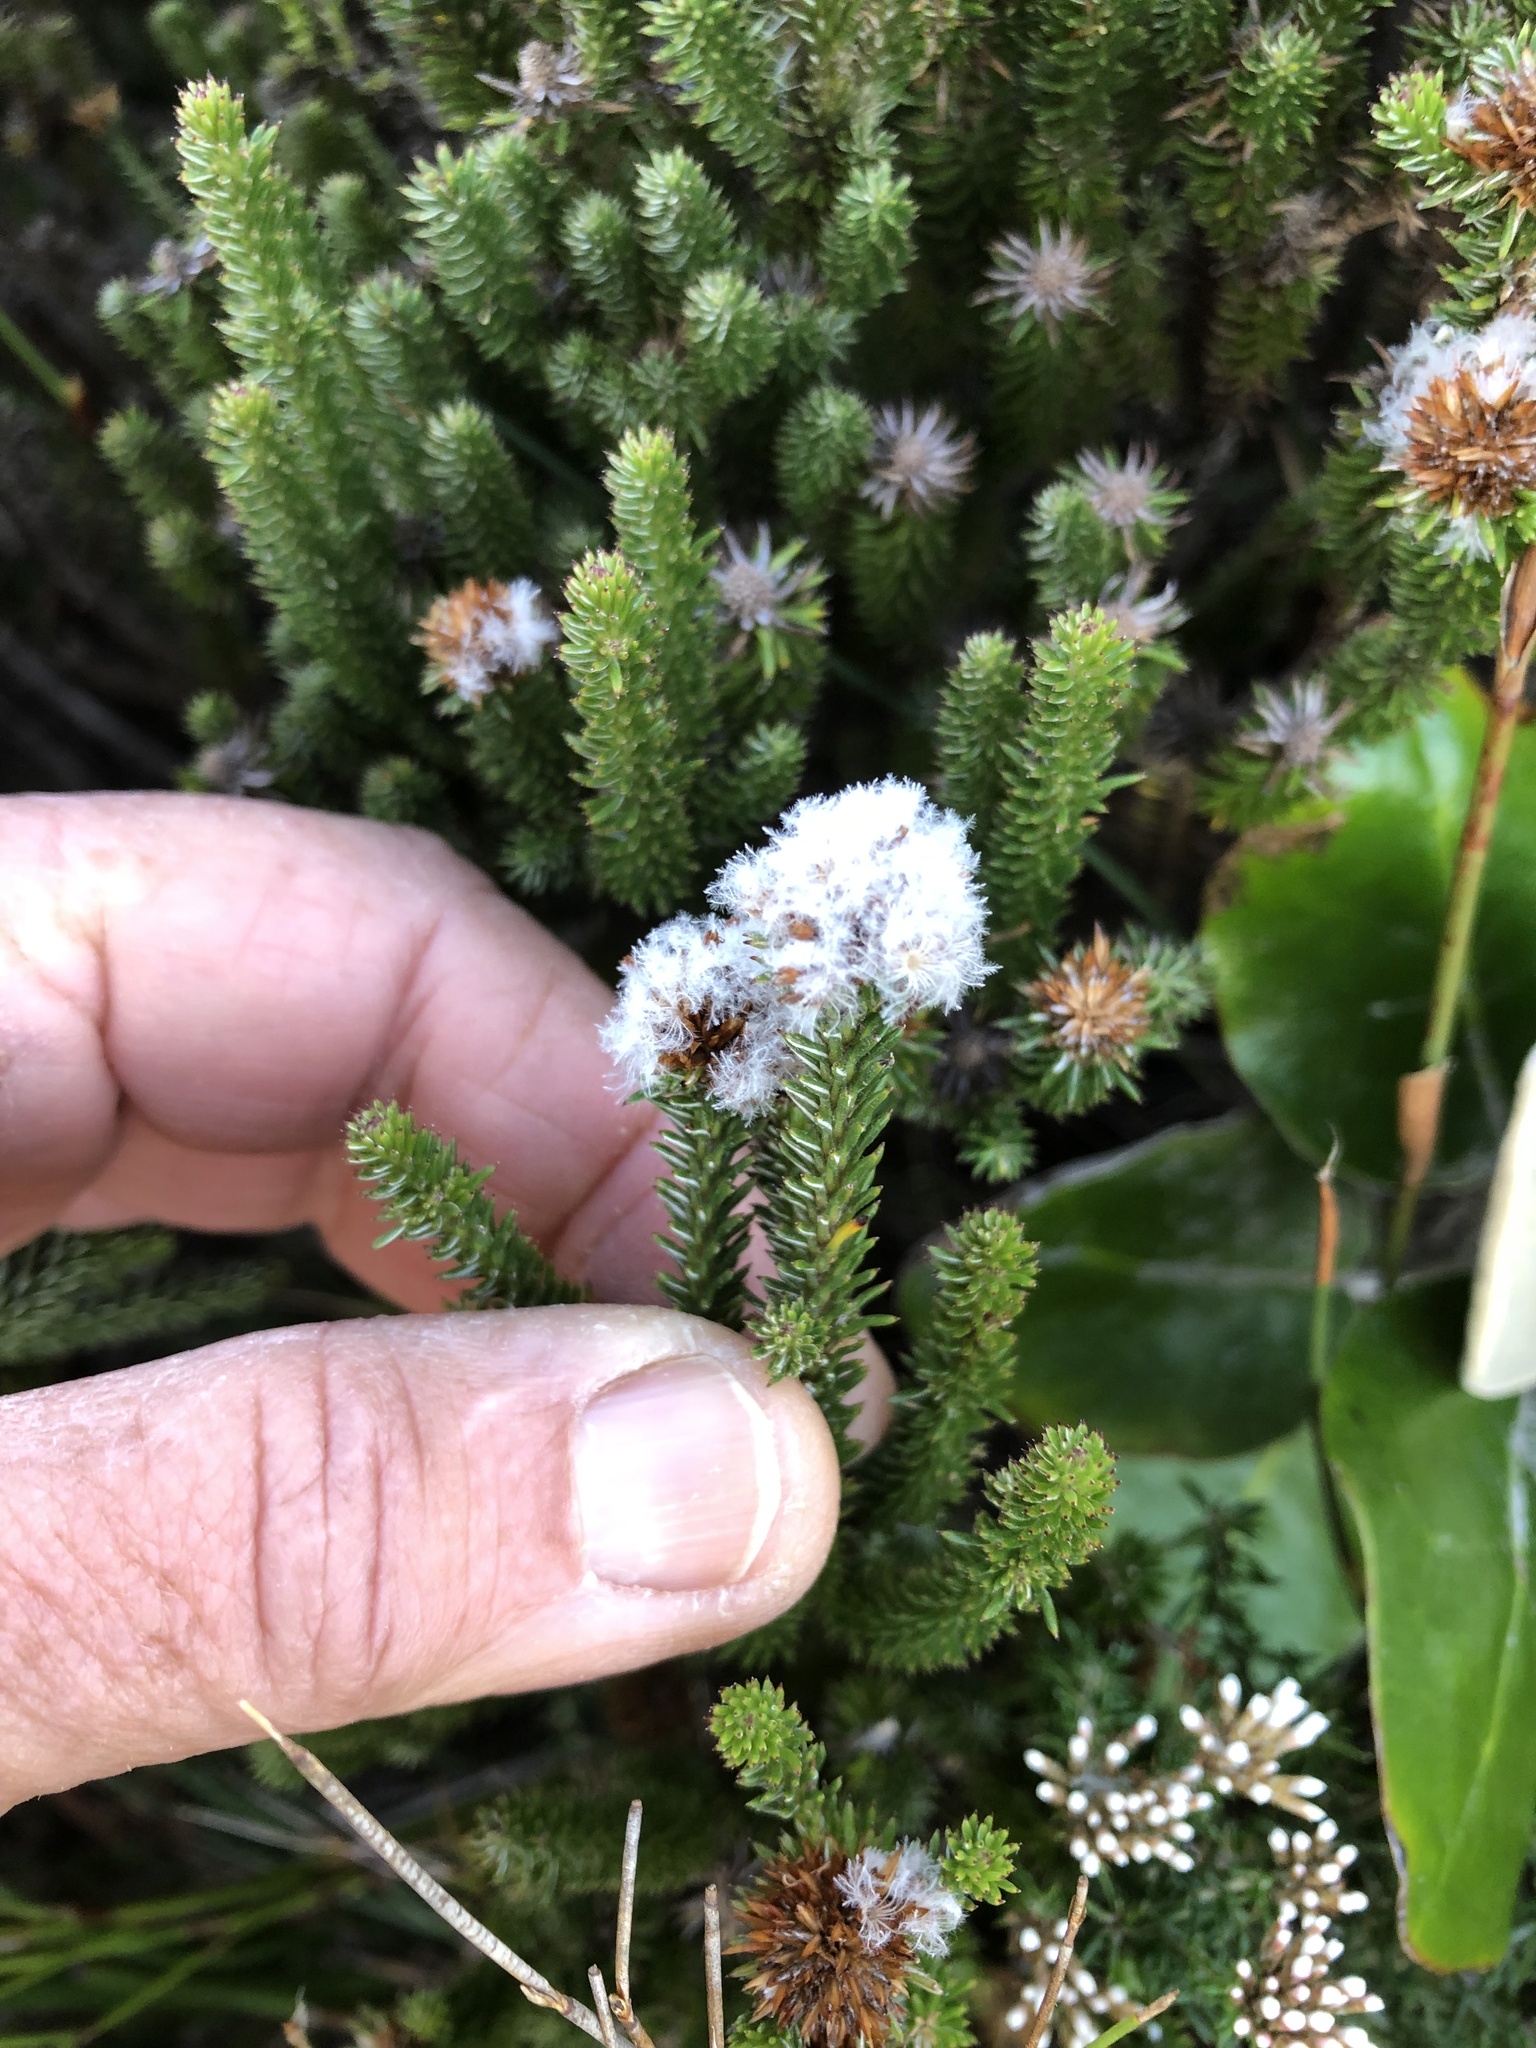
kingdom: Plantae
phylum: Tracheophyta
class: Magnoliopsida
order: Asterales
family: Asteraceae
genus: Stoebe
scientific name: Stoebe rosea
